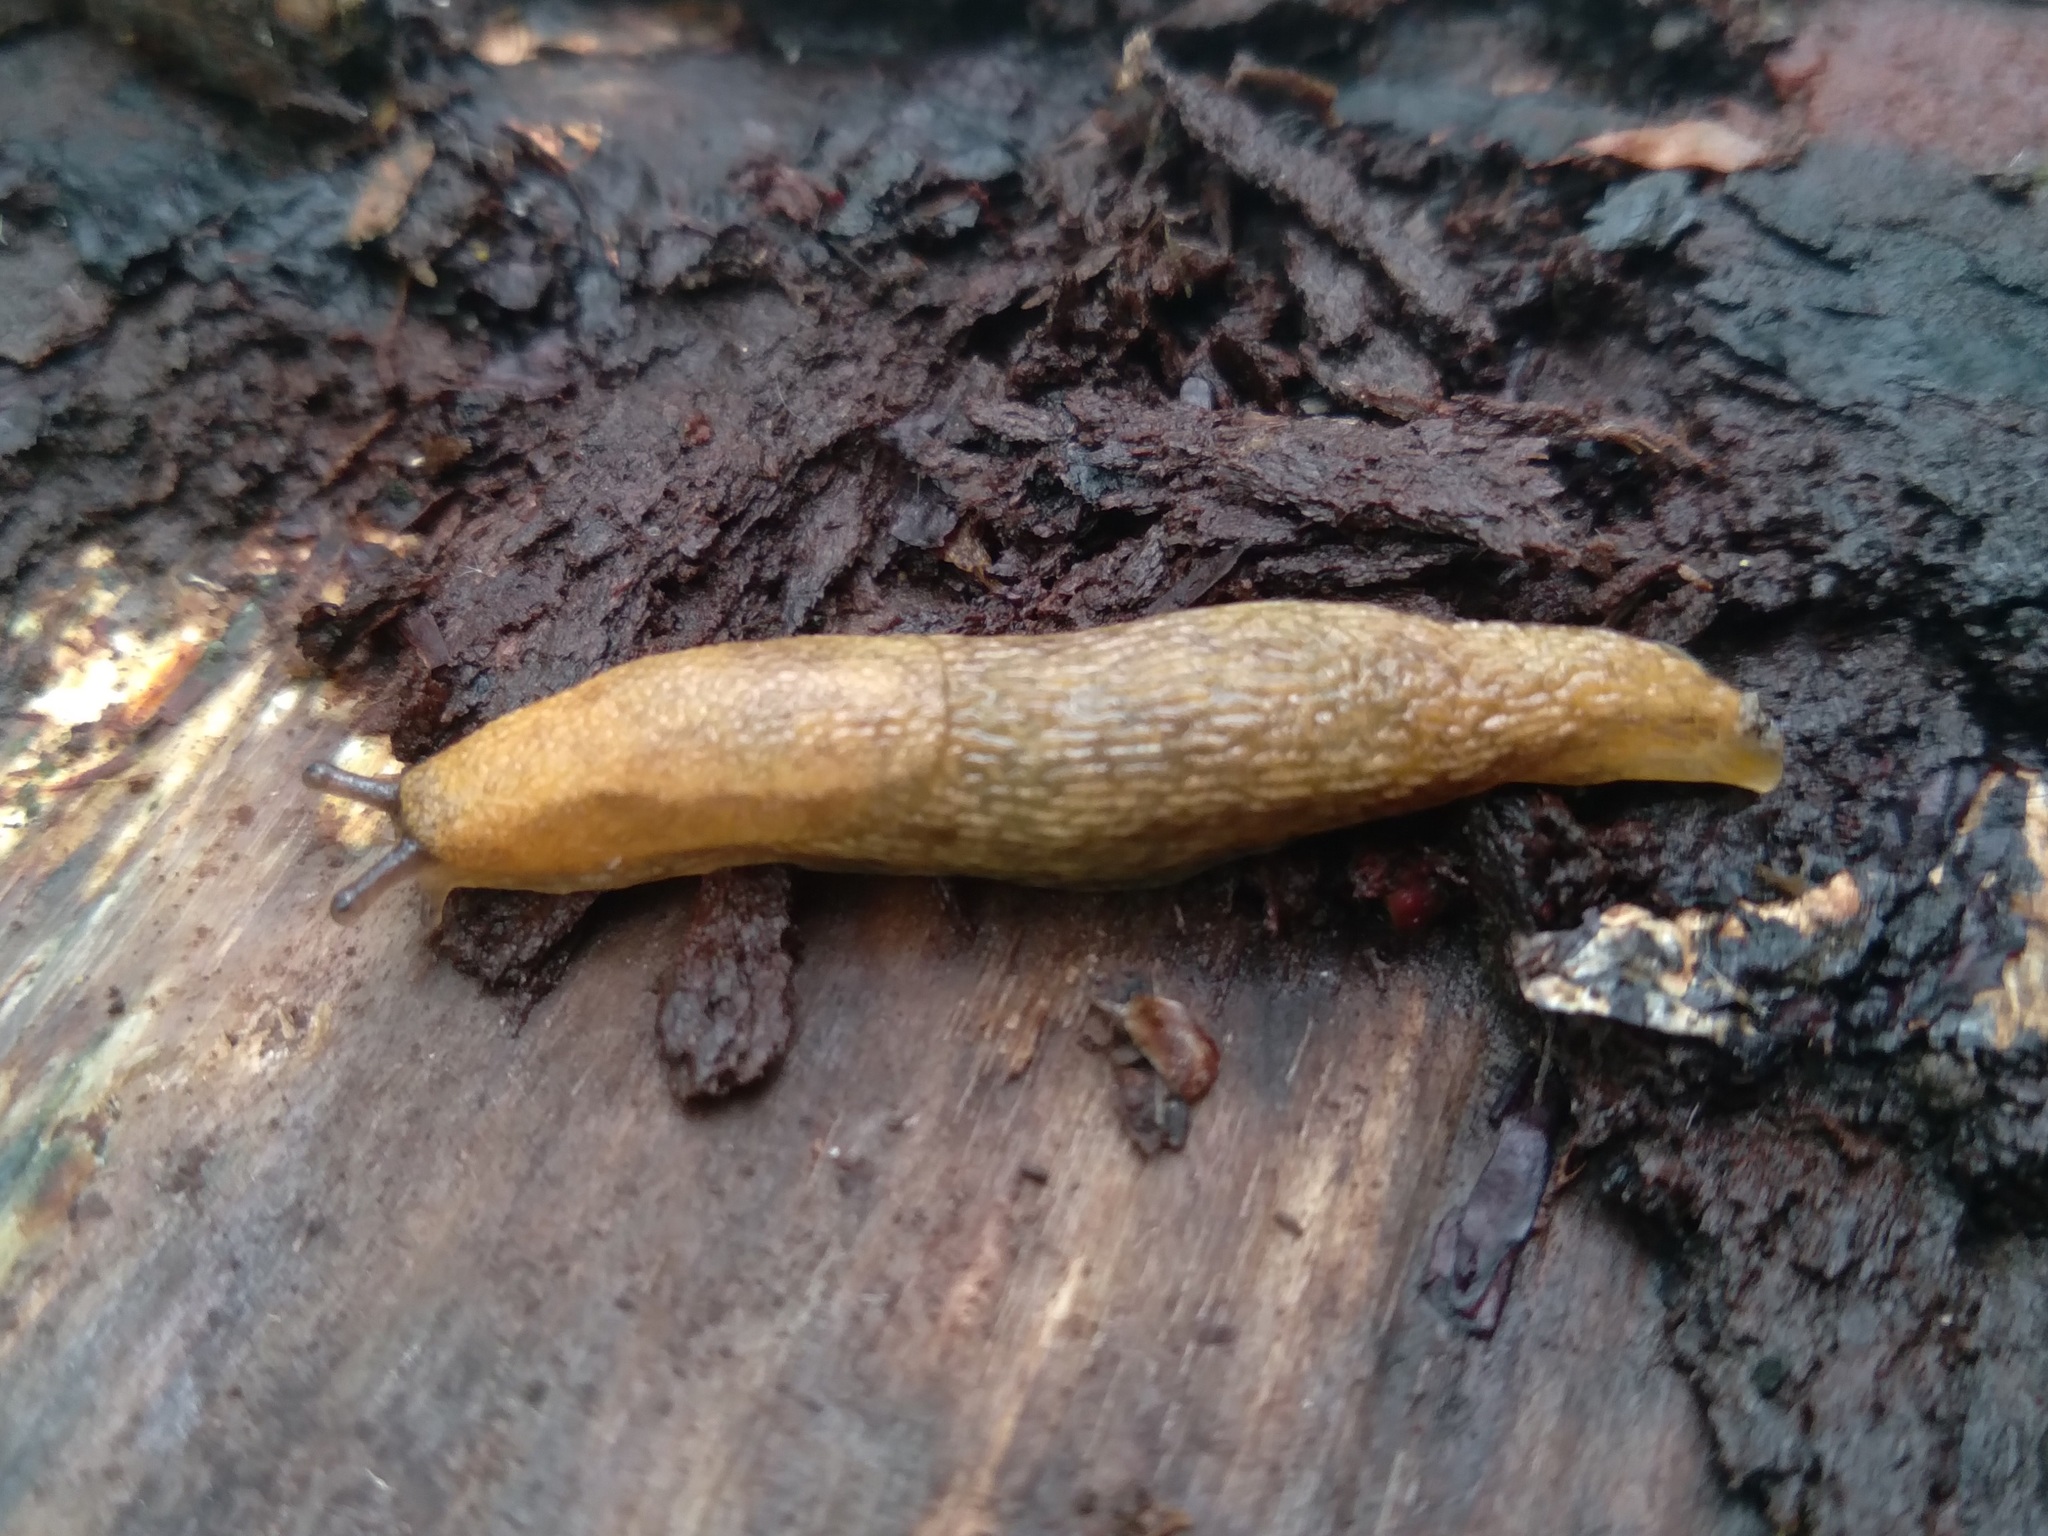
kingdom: Animalia
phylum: Mollusca
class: Gastropoda
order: Stylommatophora
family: Arionidae
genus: Arion
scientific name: Arion fuscus
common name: Northern dusky slug
